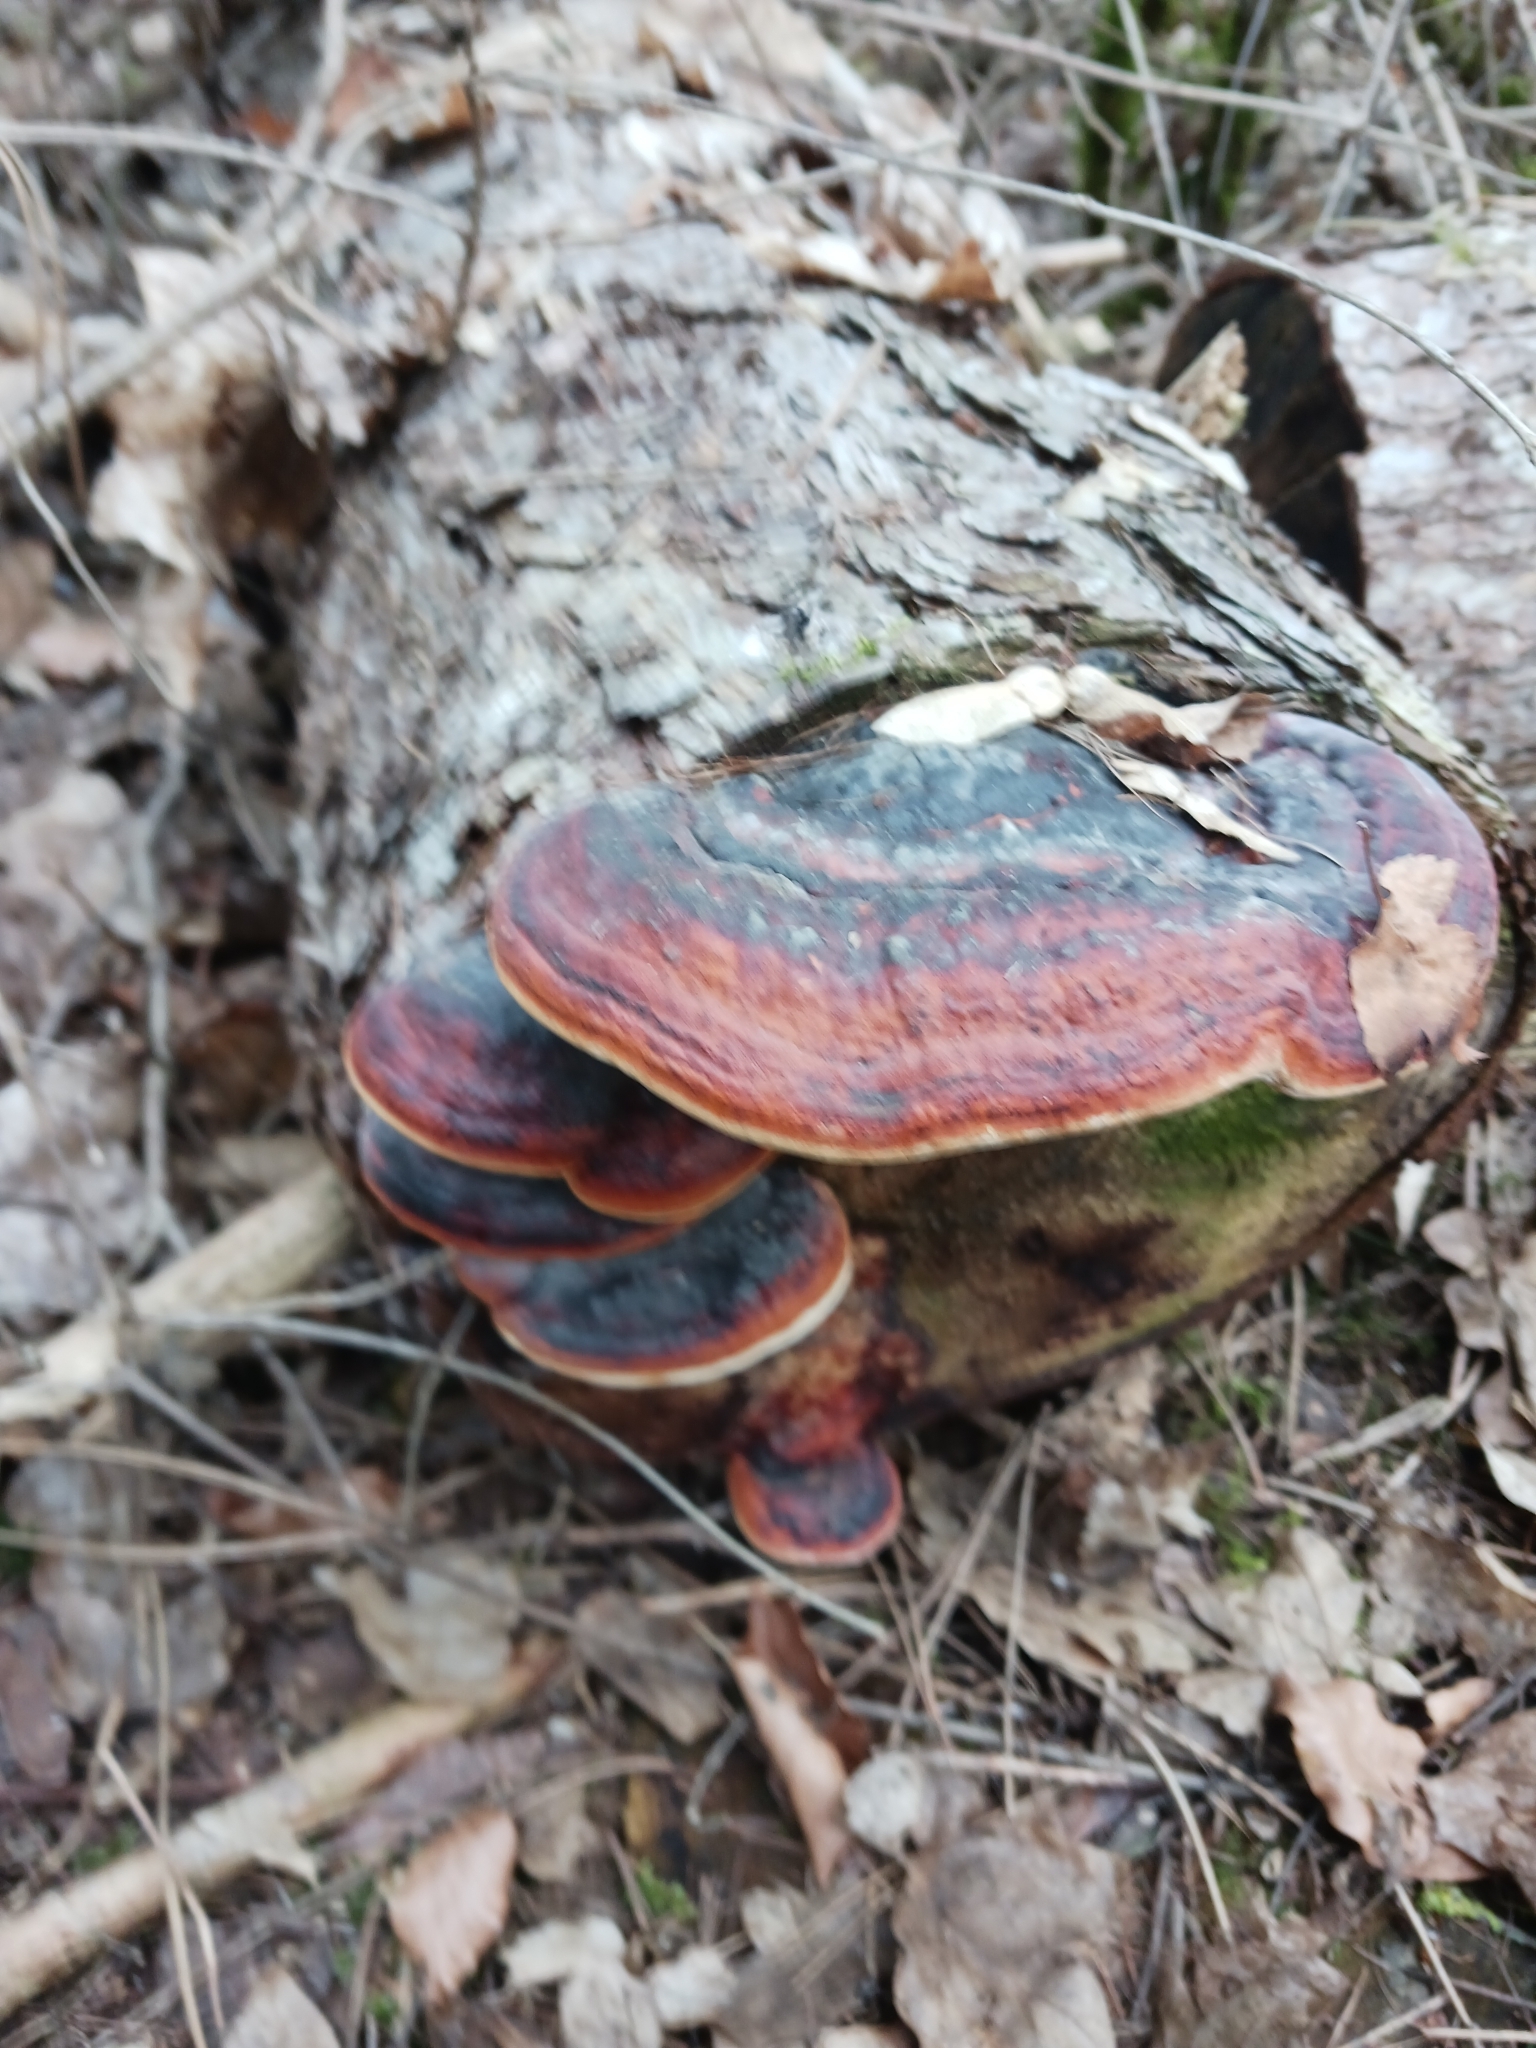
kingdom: Fungi
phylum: Basidiomycota
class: Agaricomycetes
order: Polyporales
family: Fomitopsidaceae
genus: Fomitopsis
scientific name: Fomitopsis pinicola
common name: Red-belted bracket
